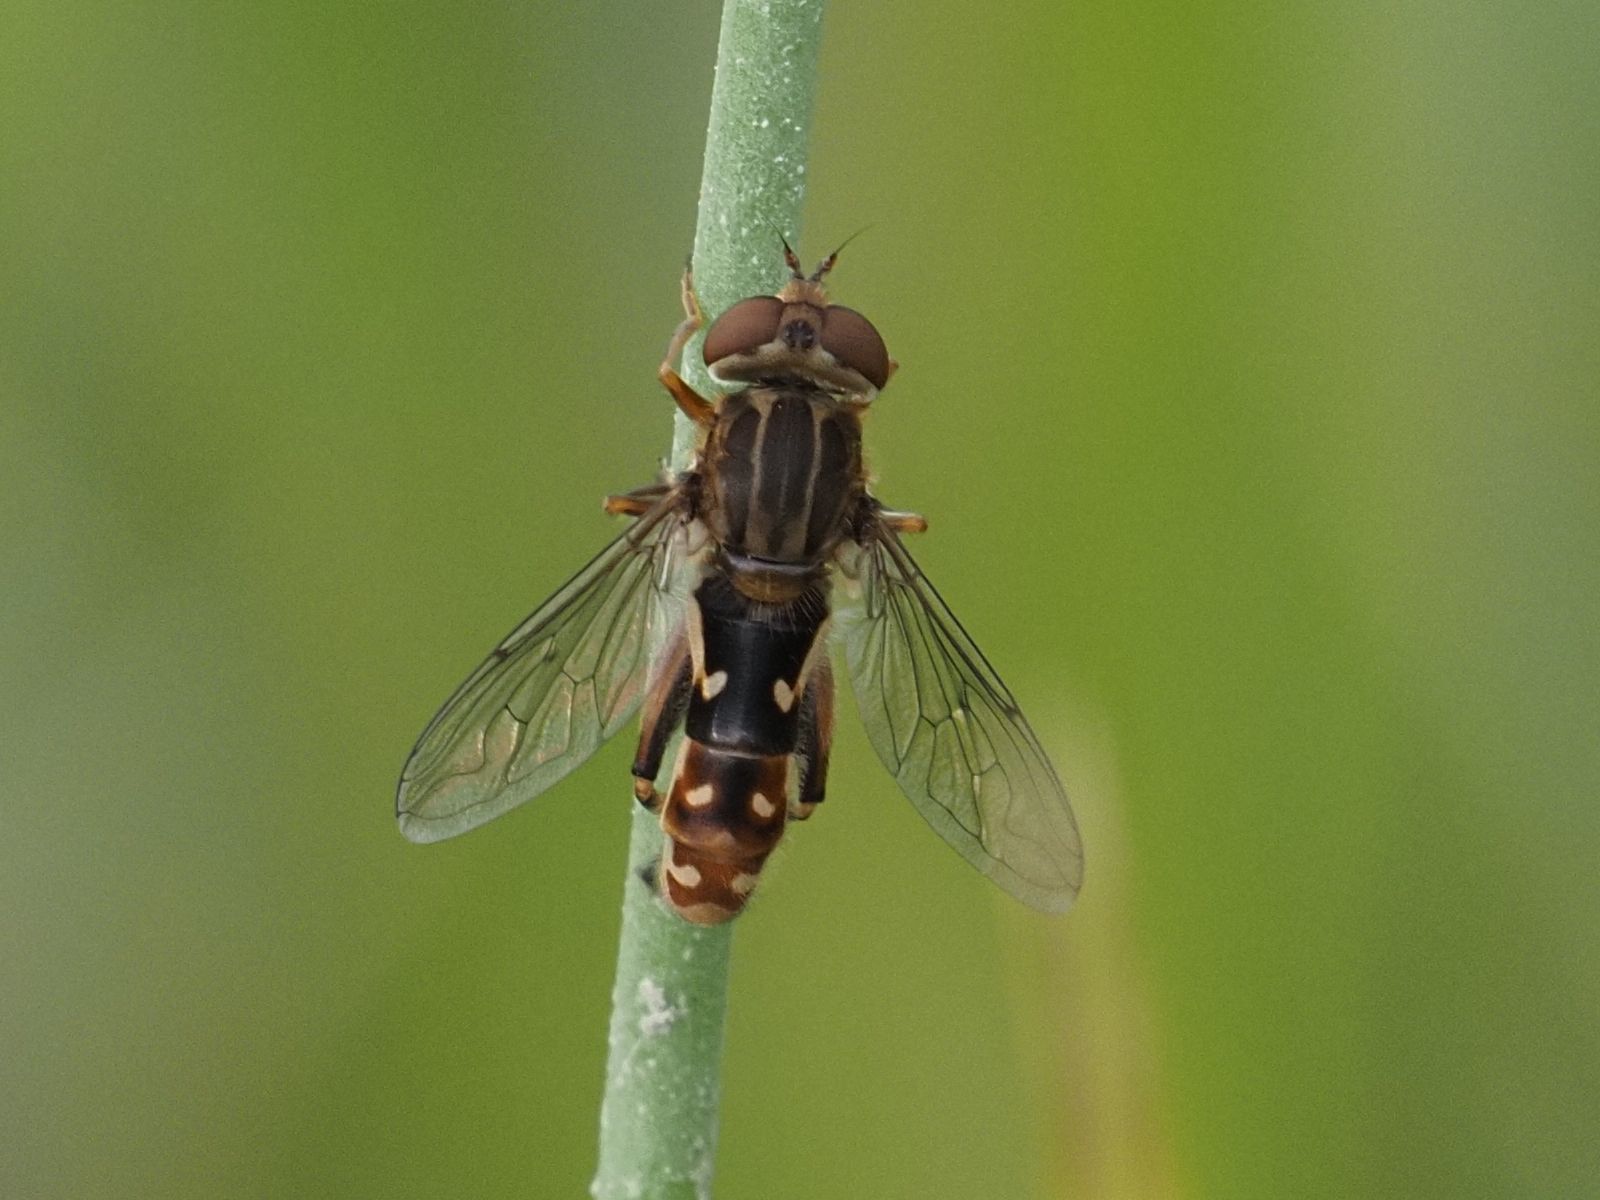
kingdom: Animalia
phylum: Arthropoda
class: Insecta
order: Diptera
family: Syrphidae
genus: Anasimyia
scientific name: Anasimyia contracta
